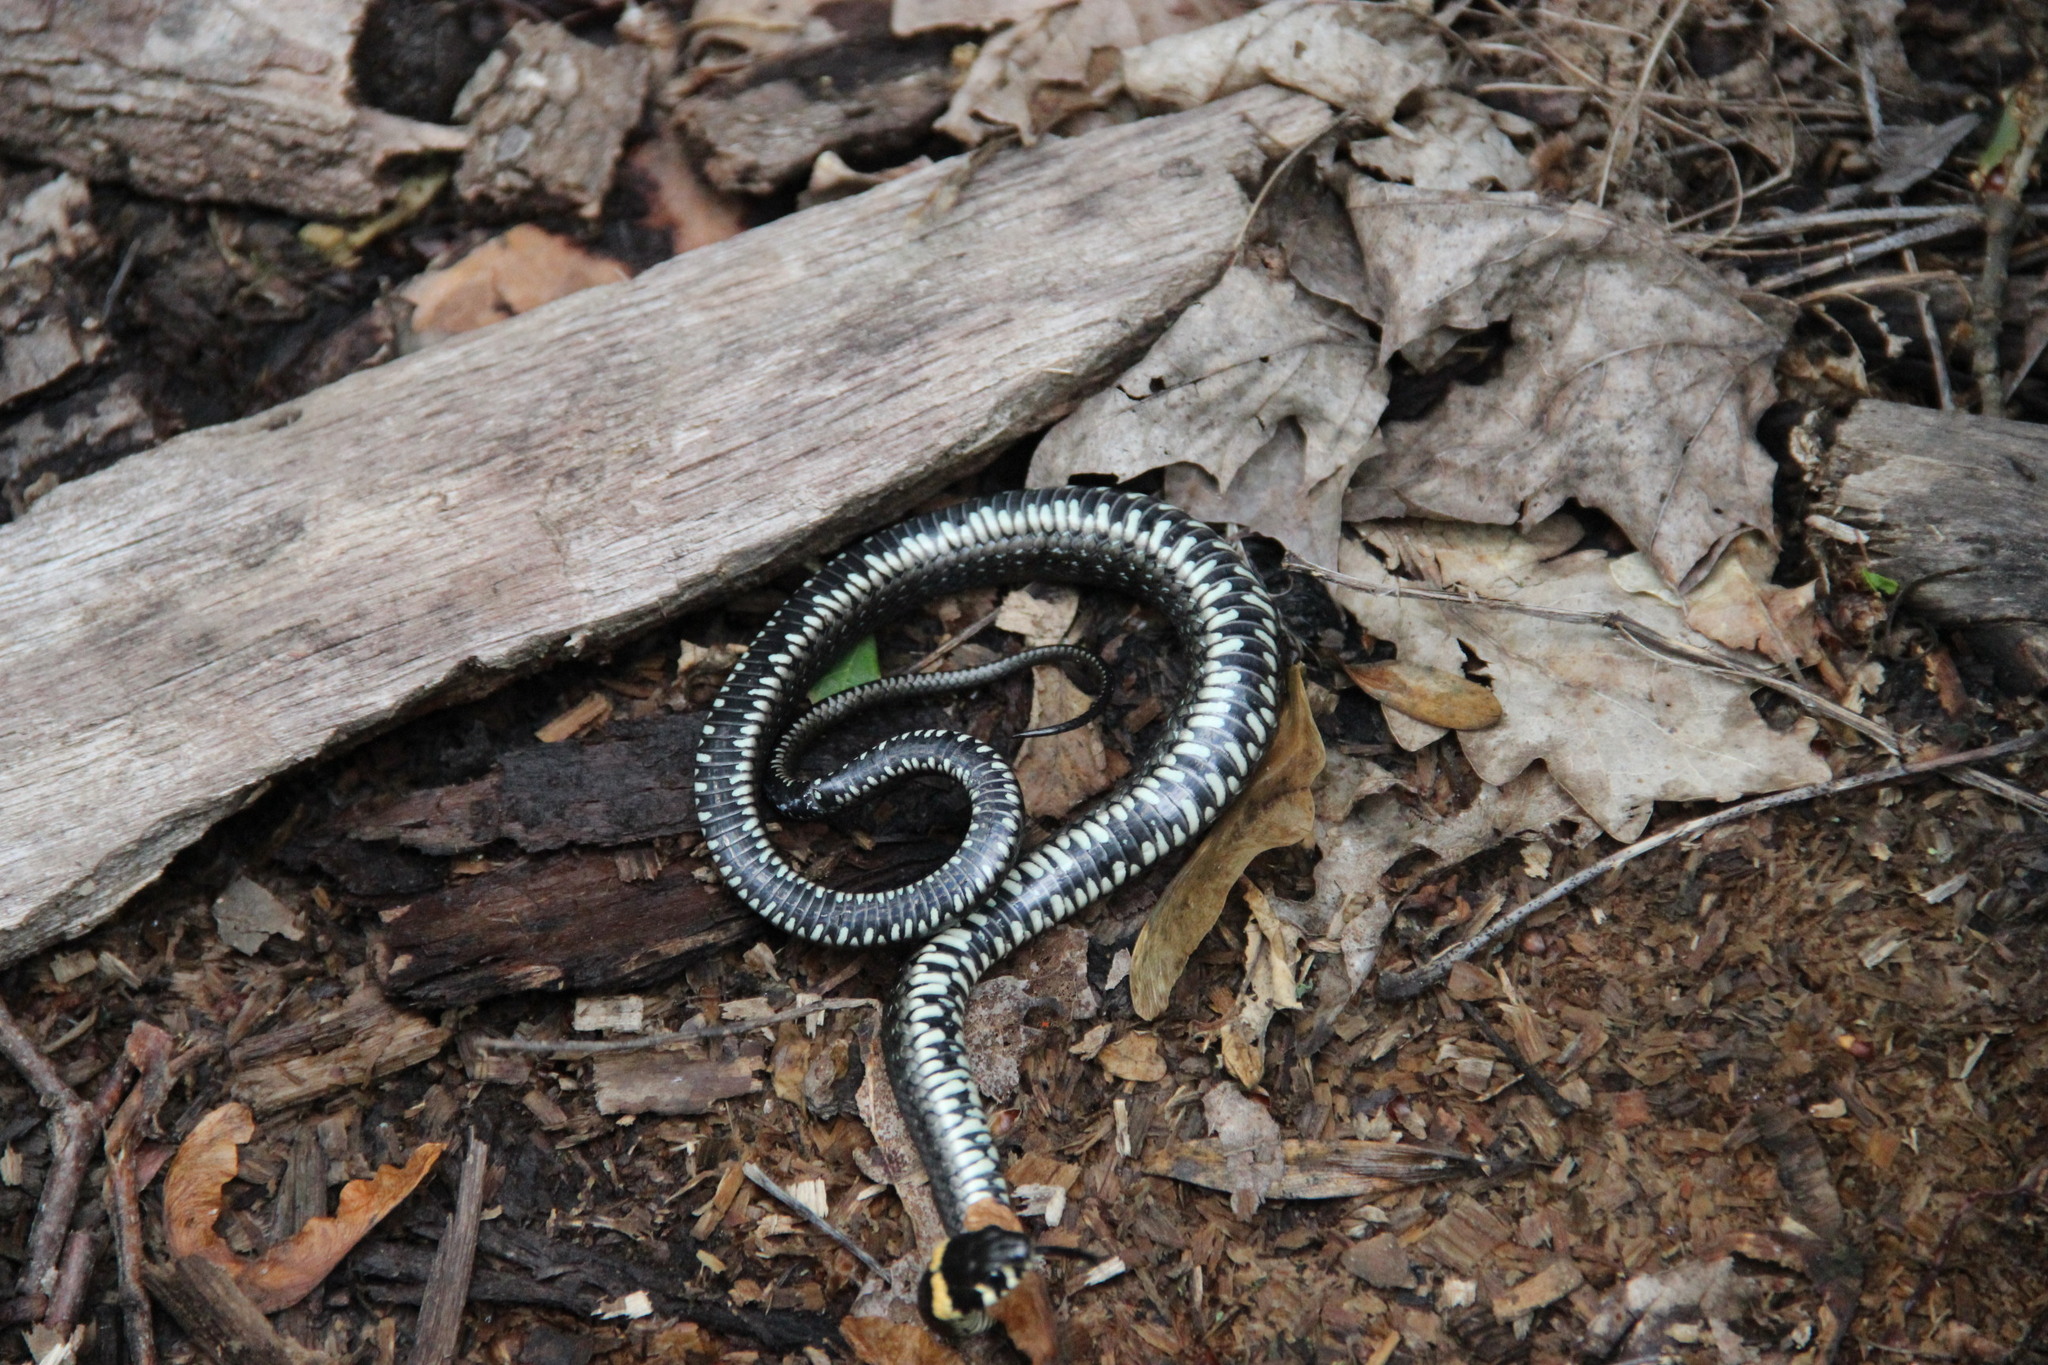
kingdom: Animalia
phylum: Chordata
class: Squamata
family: Colubridae
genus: Natrix
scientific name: Natrix natrix
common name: Grass snake
